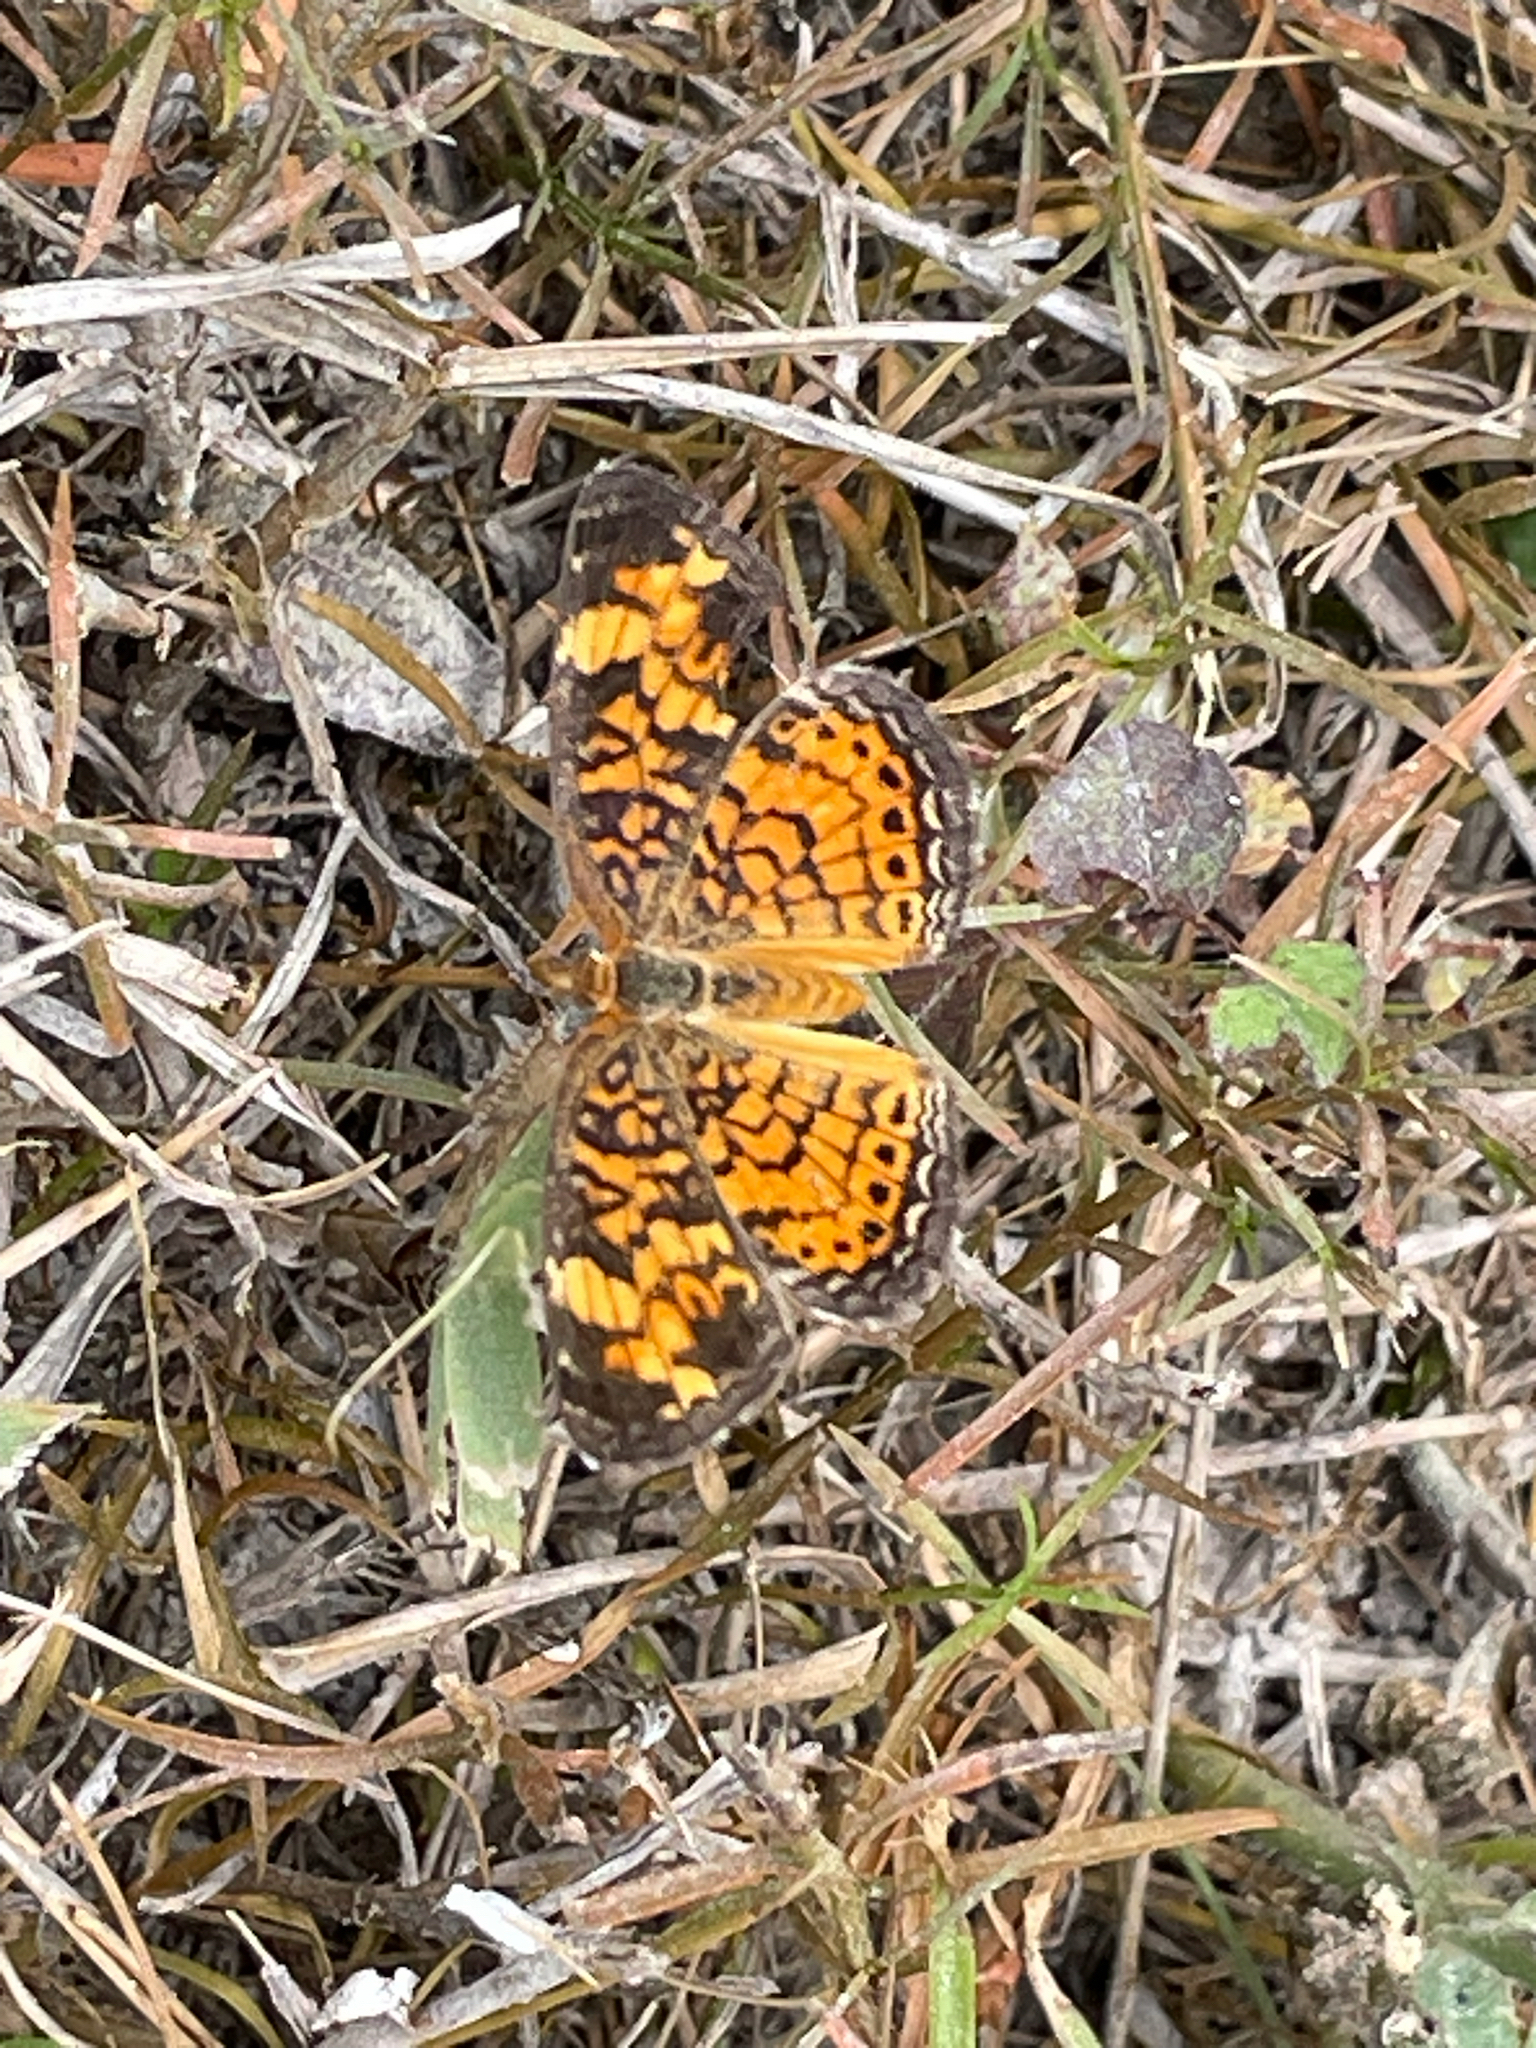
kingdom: Animalia
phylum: Arthropoda
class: Insecta
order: Lepidoptera
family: Nymphalidae
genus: Phyciodes
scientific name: Phyciodes tharos
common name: Pearl crescent
